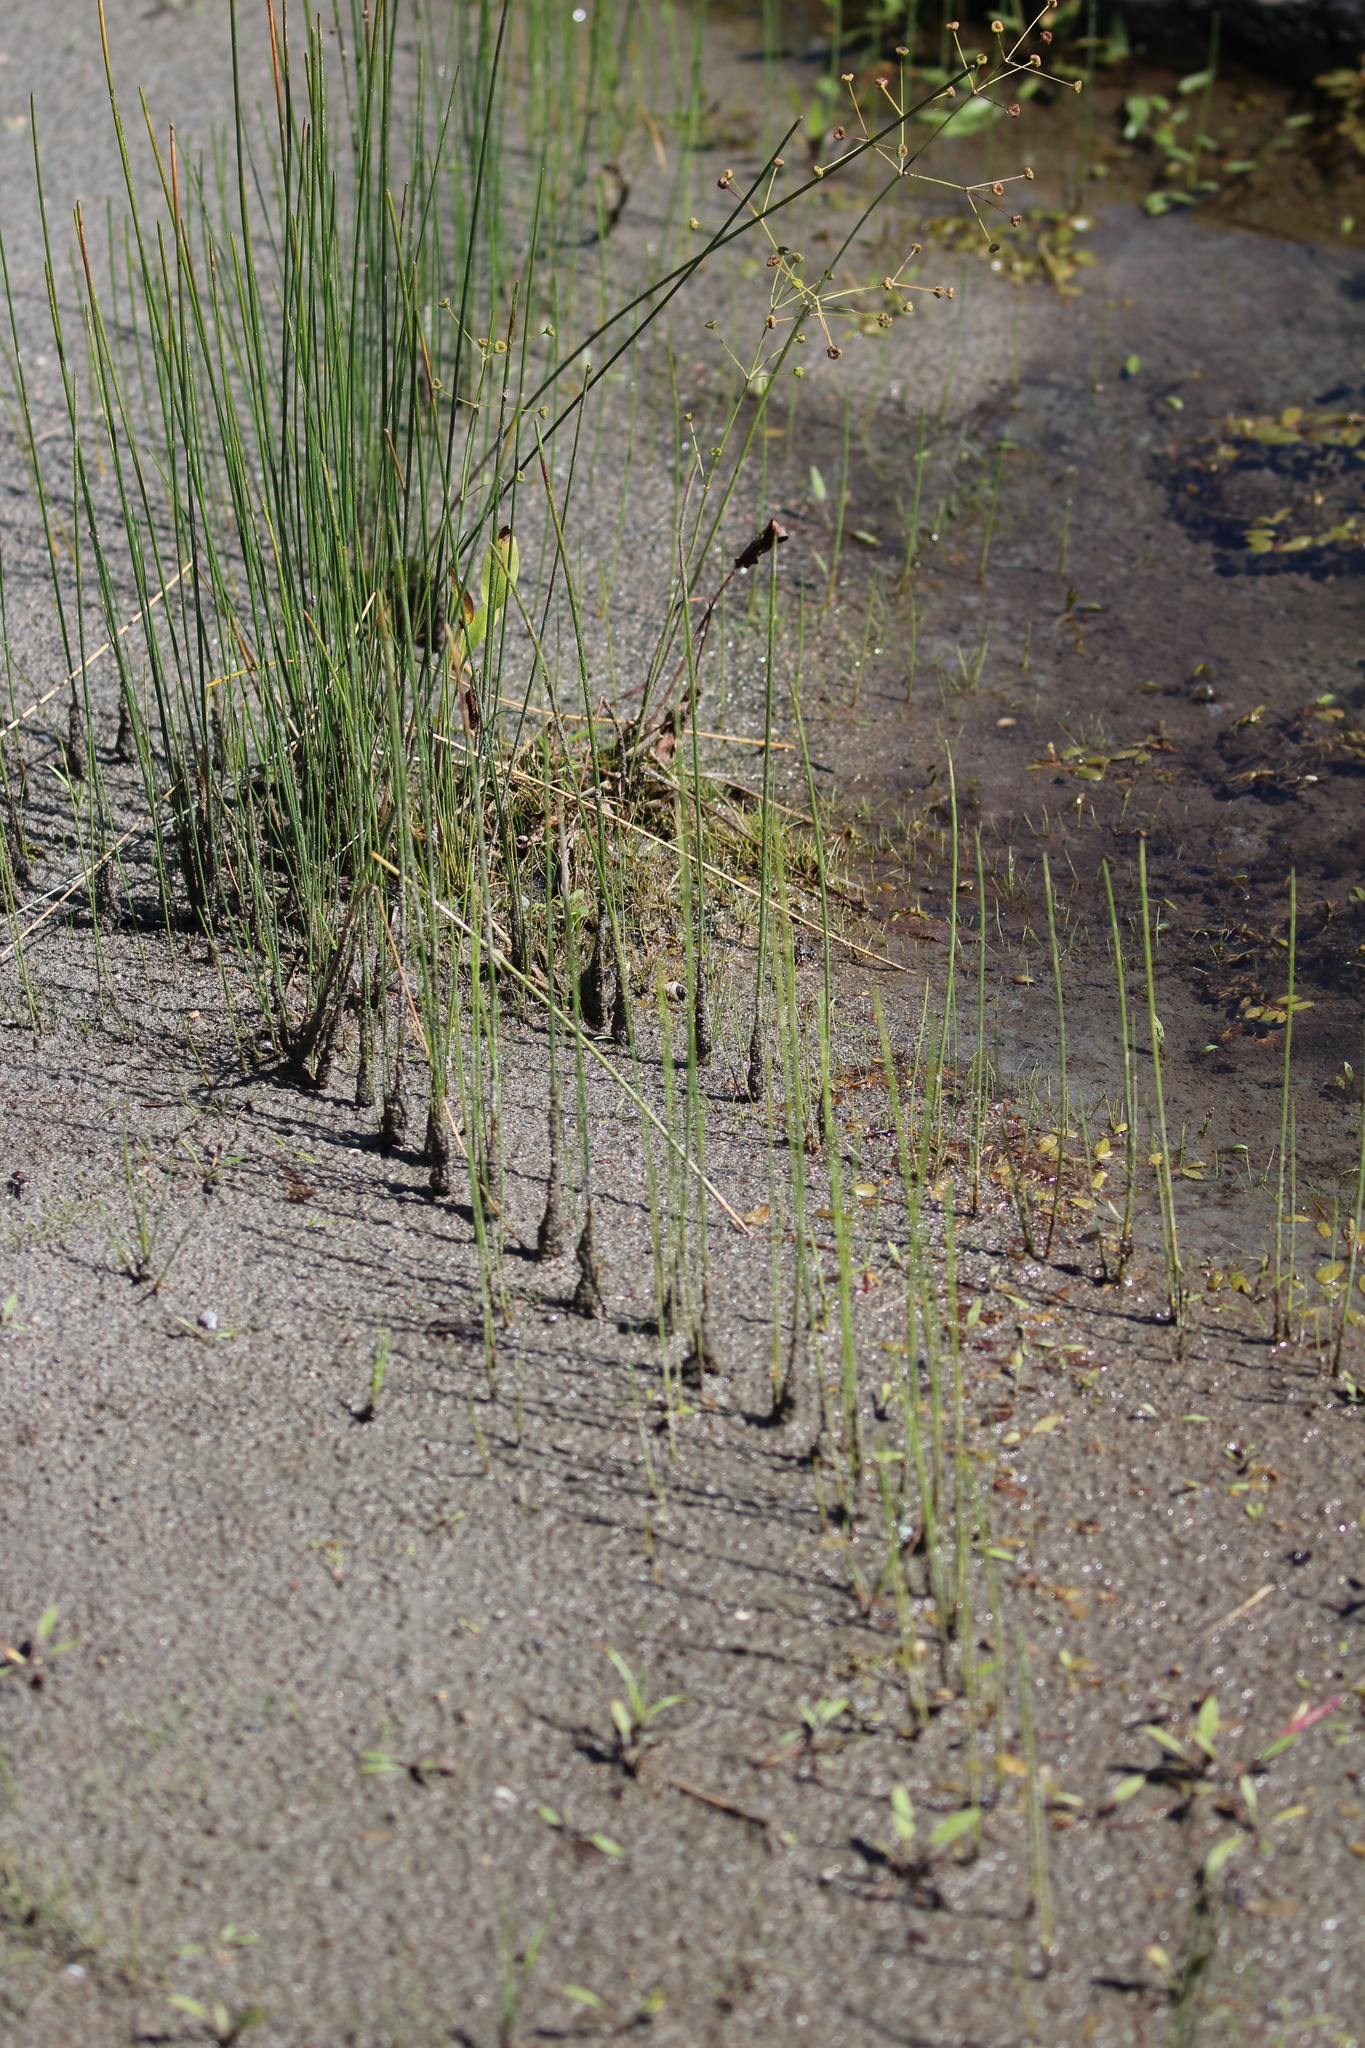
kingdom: Plantae
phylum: Tracheophyta
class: Liliopsida
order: Poales
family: Juncaceae
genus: Juncus
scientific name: Juncus balticus
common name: Baltic rush
